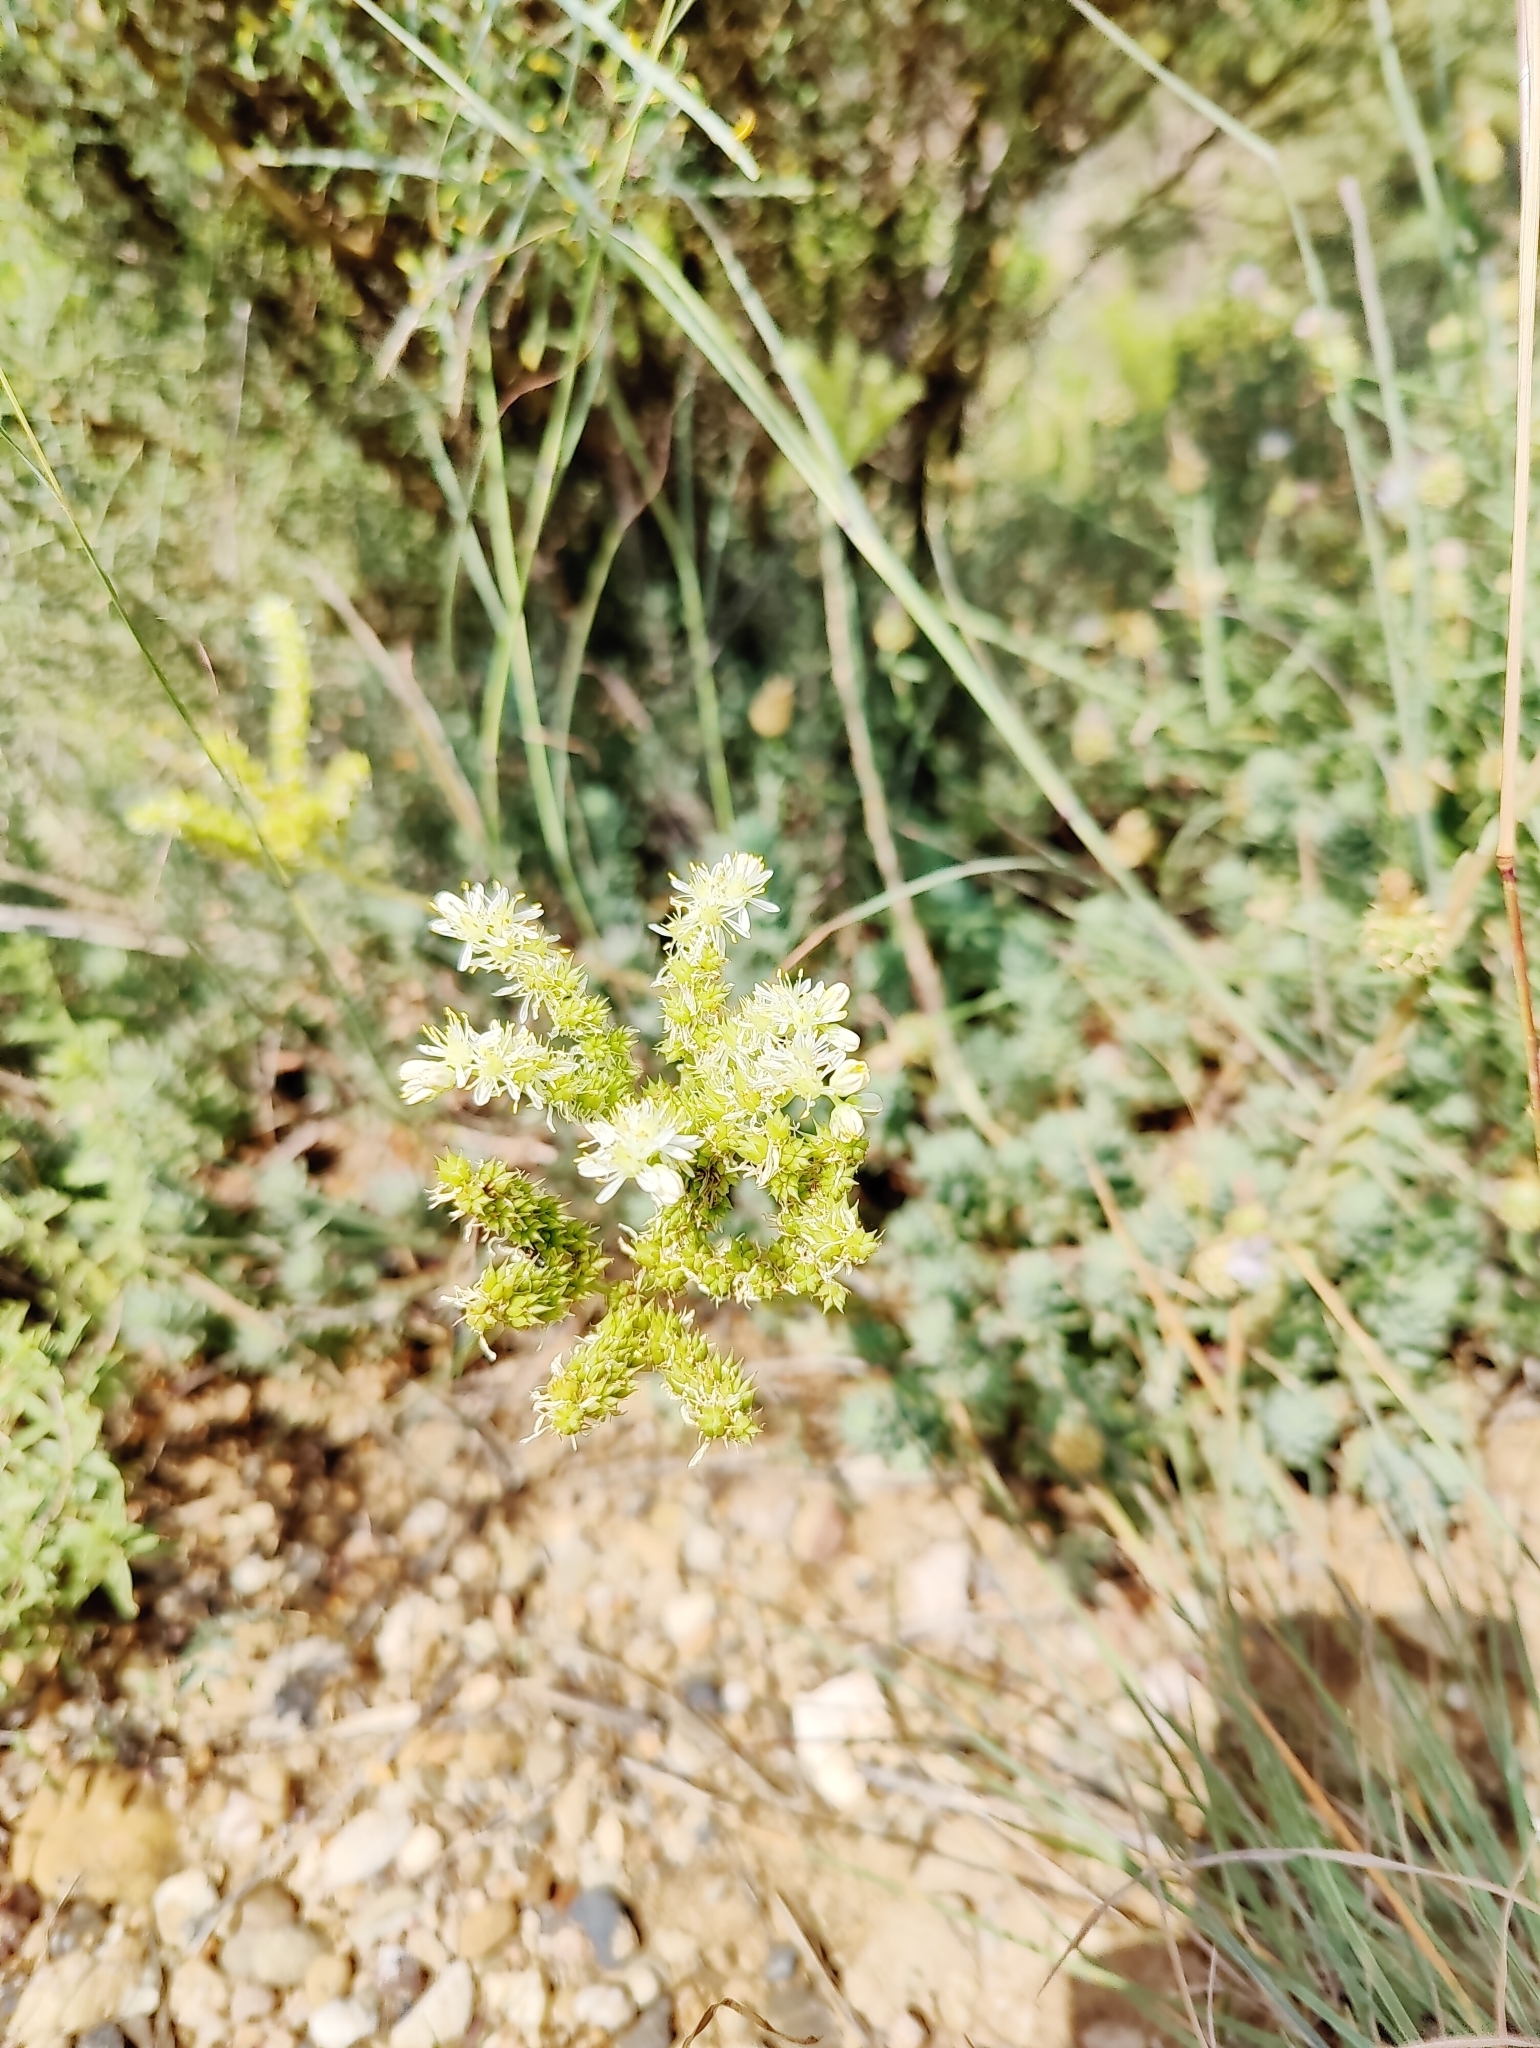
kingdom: Plantae
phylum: Tracheophyta
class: Magnoliopsida
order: Saxifragales
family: Crassulaceae
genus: Petrosedum
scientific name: Petrosedum sediforme
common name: Pale stonecrop
